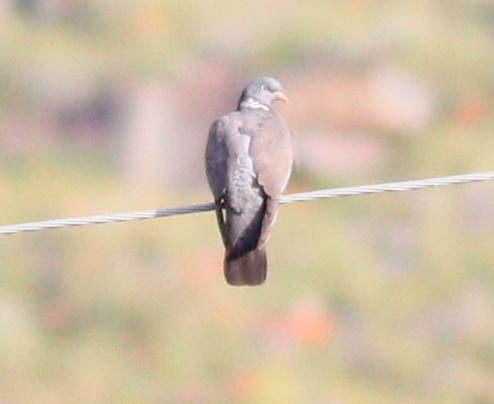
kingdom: Animalia
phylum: Chordata
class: Aves
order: Columbiformes
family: Columbidae
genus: Columba
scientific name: Columba palumbus
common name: Common wood pigeon
